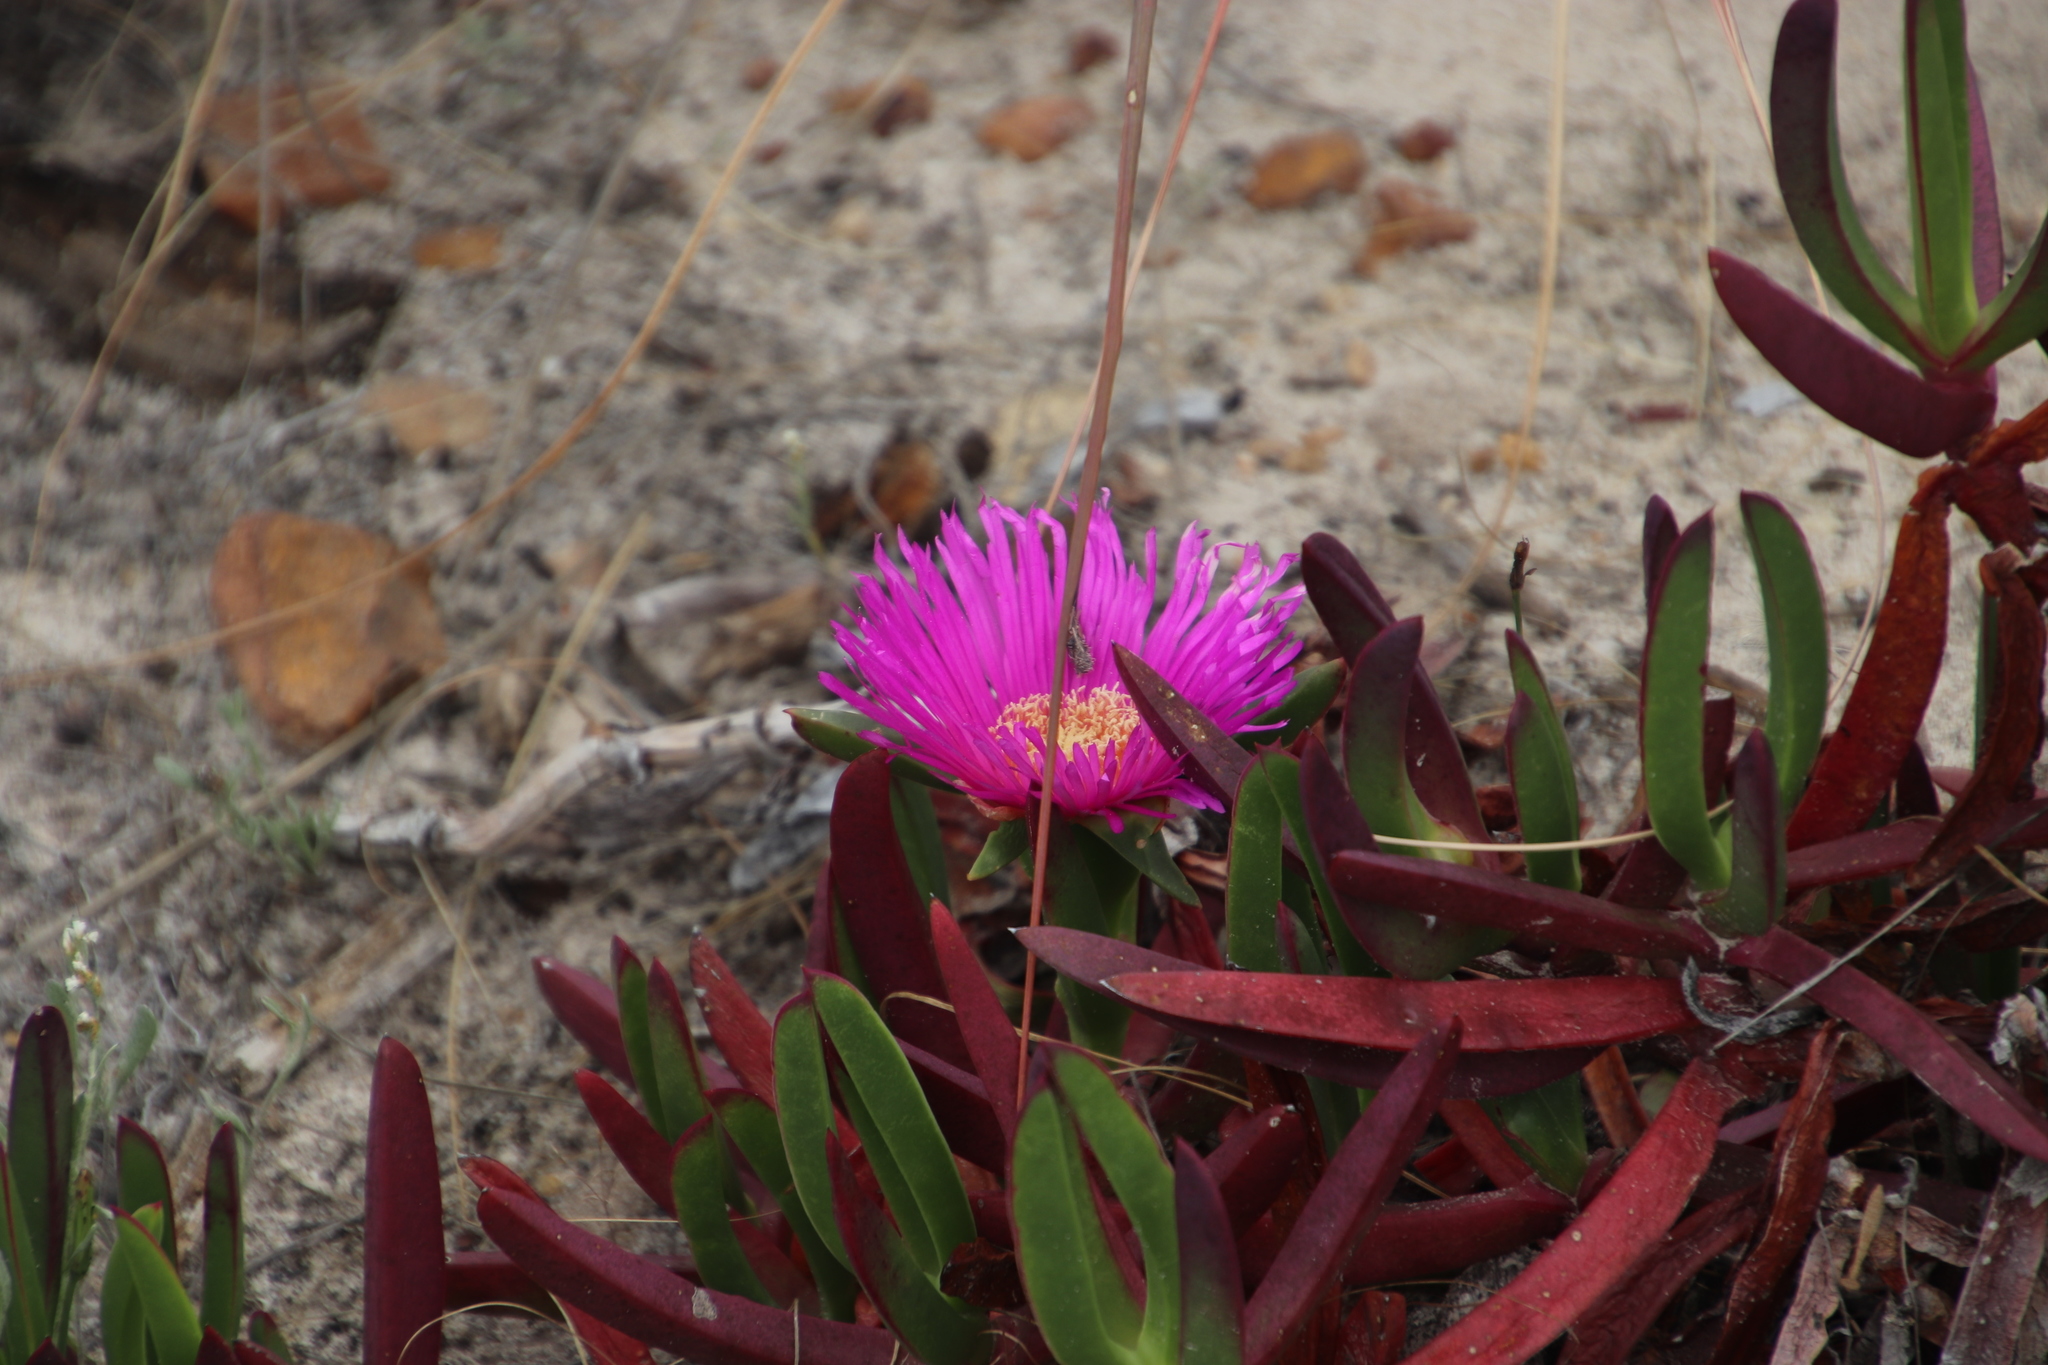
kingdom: Plantae
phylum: Tracheophyta
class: Magnoliopsida
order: Caryophyllales
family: Aizoaceae
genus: Carpobrotus
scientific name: Carpobrotus acinaciformis
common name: Sally-my-handsome
